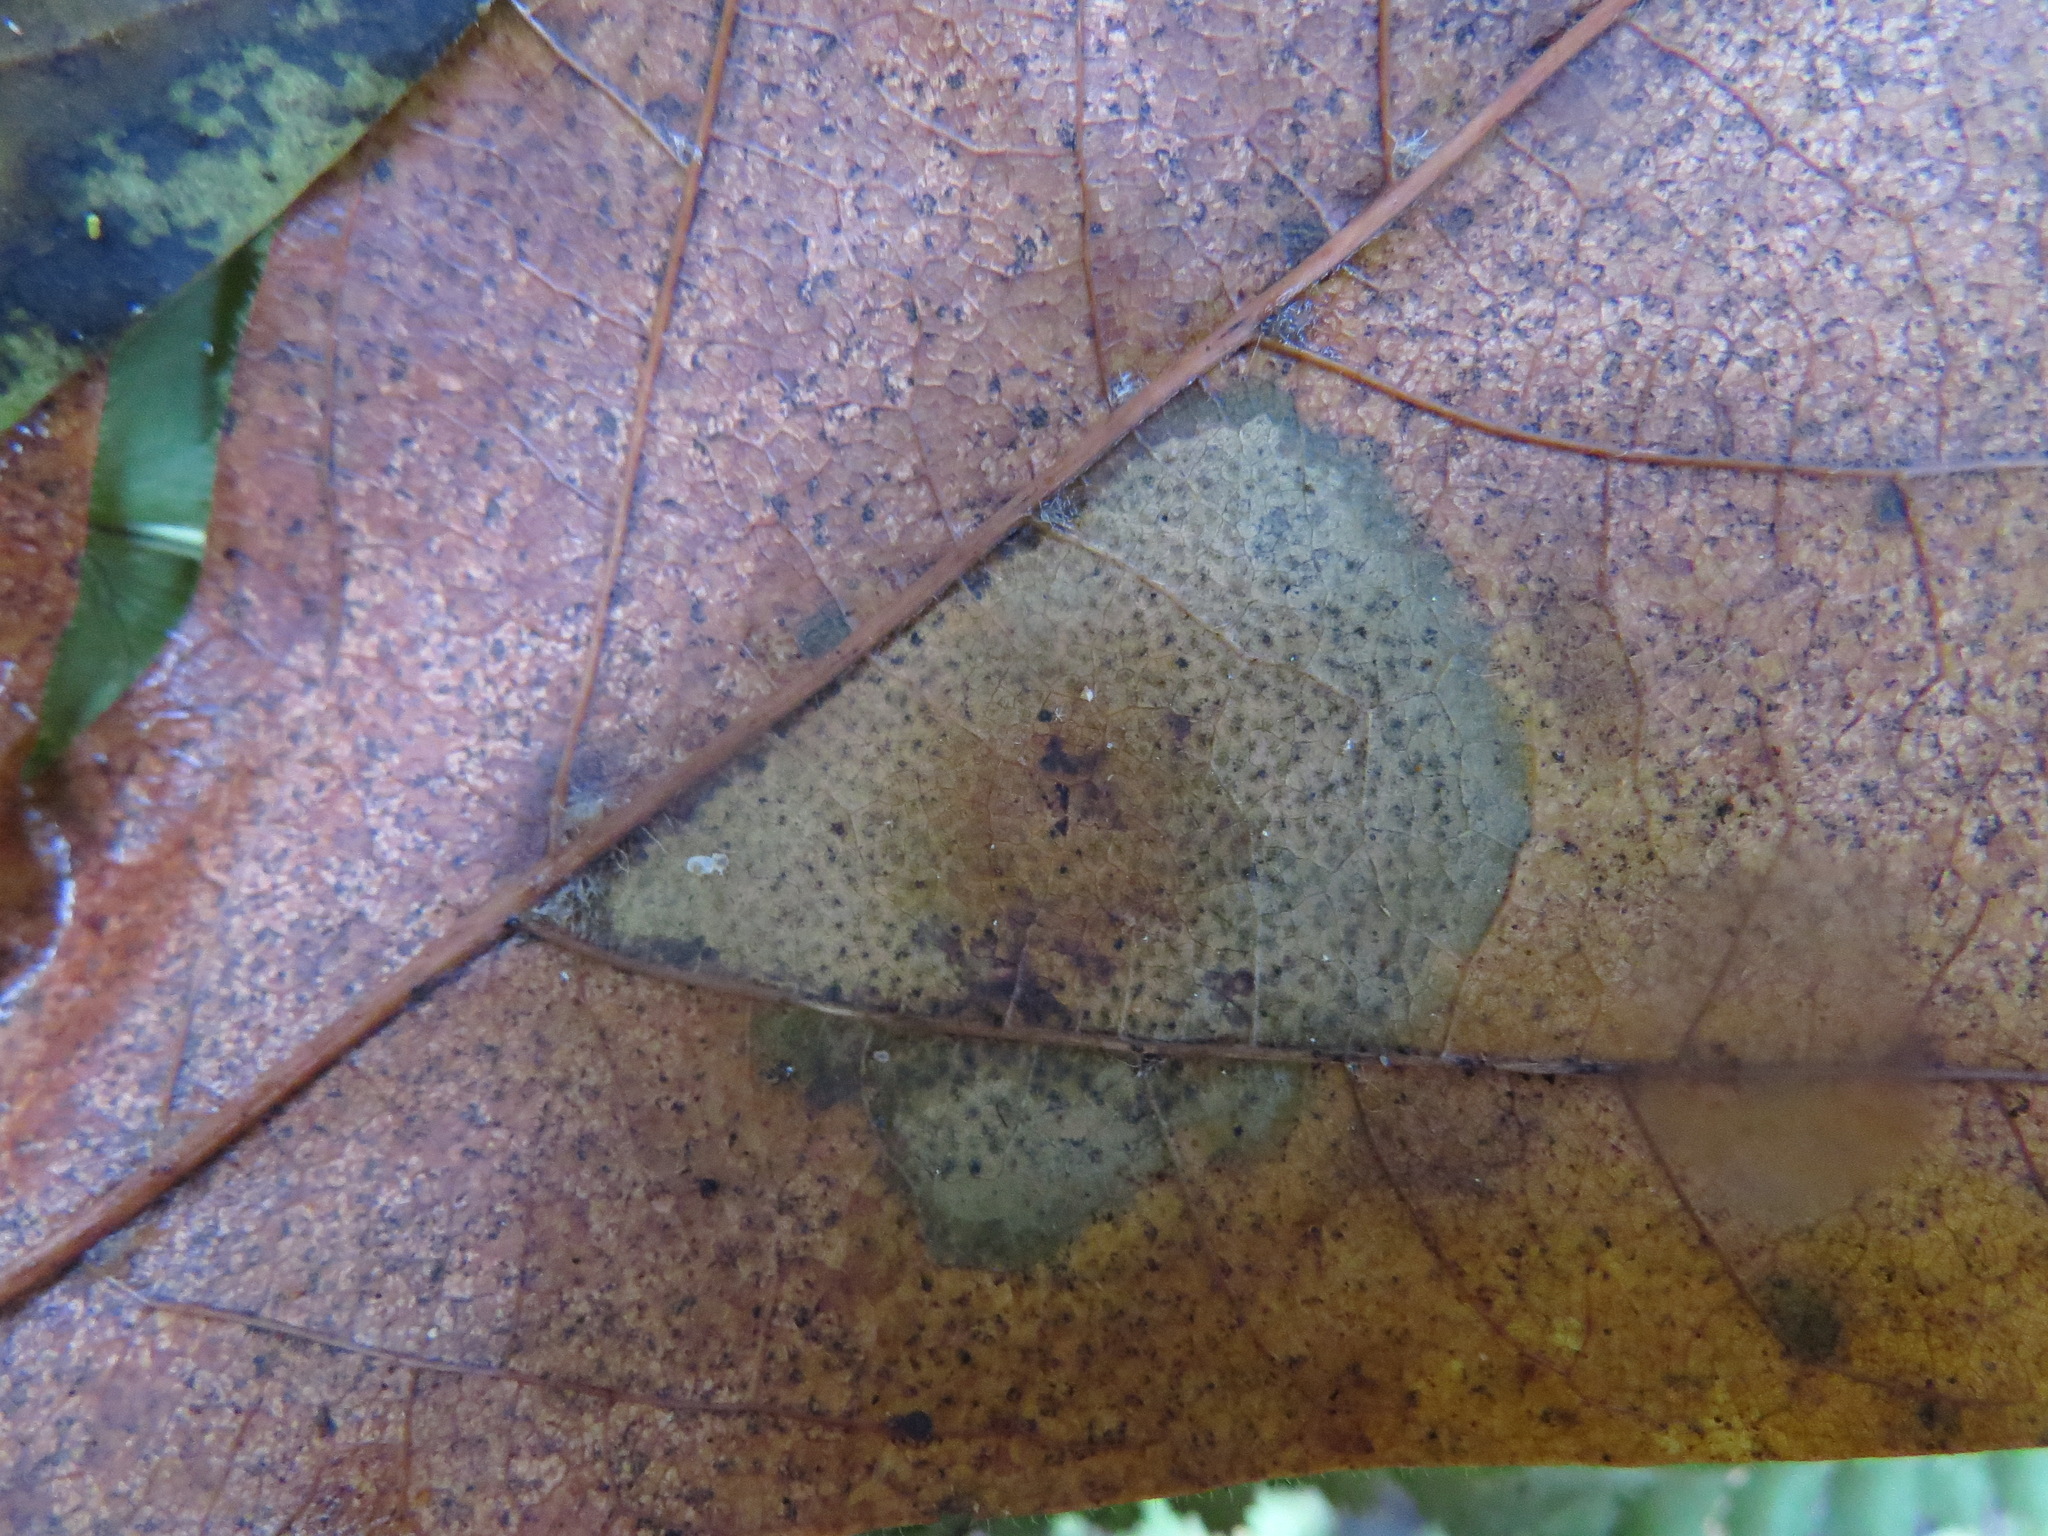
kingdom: Fungi
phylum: Ascomycota
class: Leotiomycetes
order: Rhytismatales
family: Rhytismataceae
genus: Rhytisma
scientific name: Rhytisma punctatum
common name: Speckled tar spot
